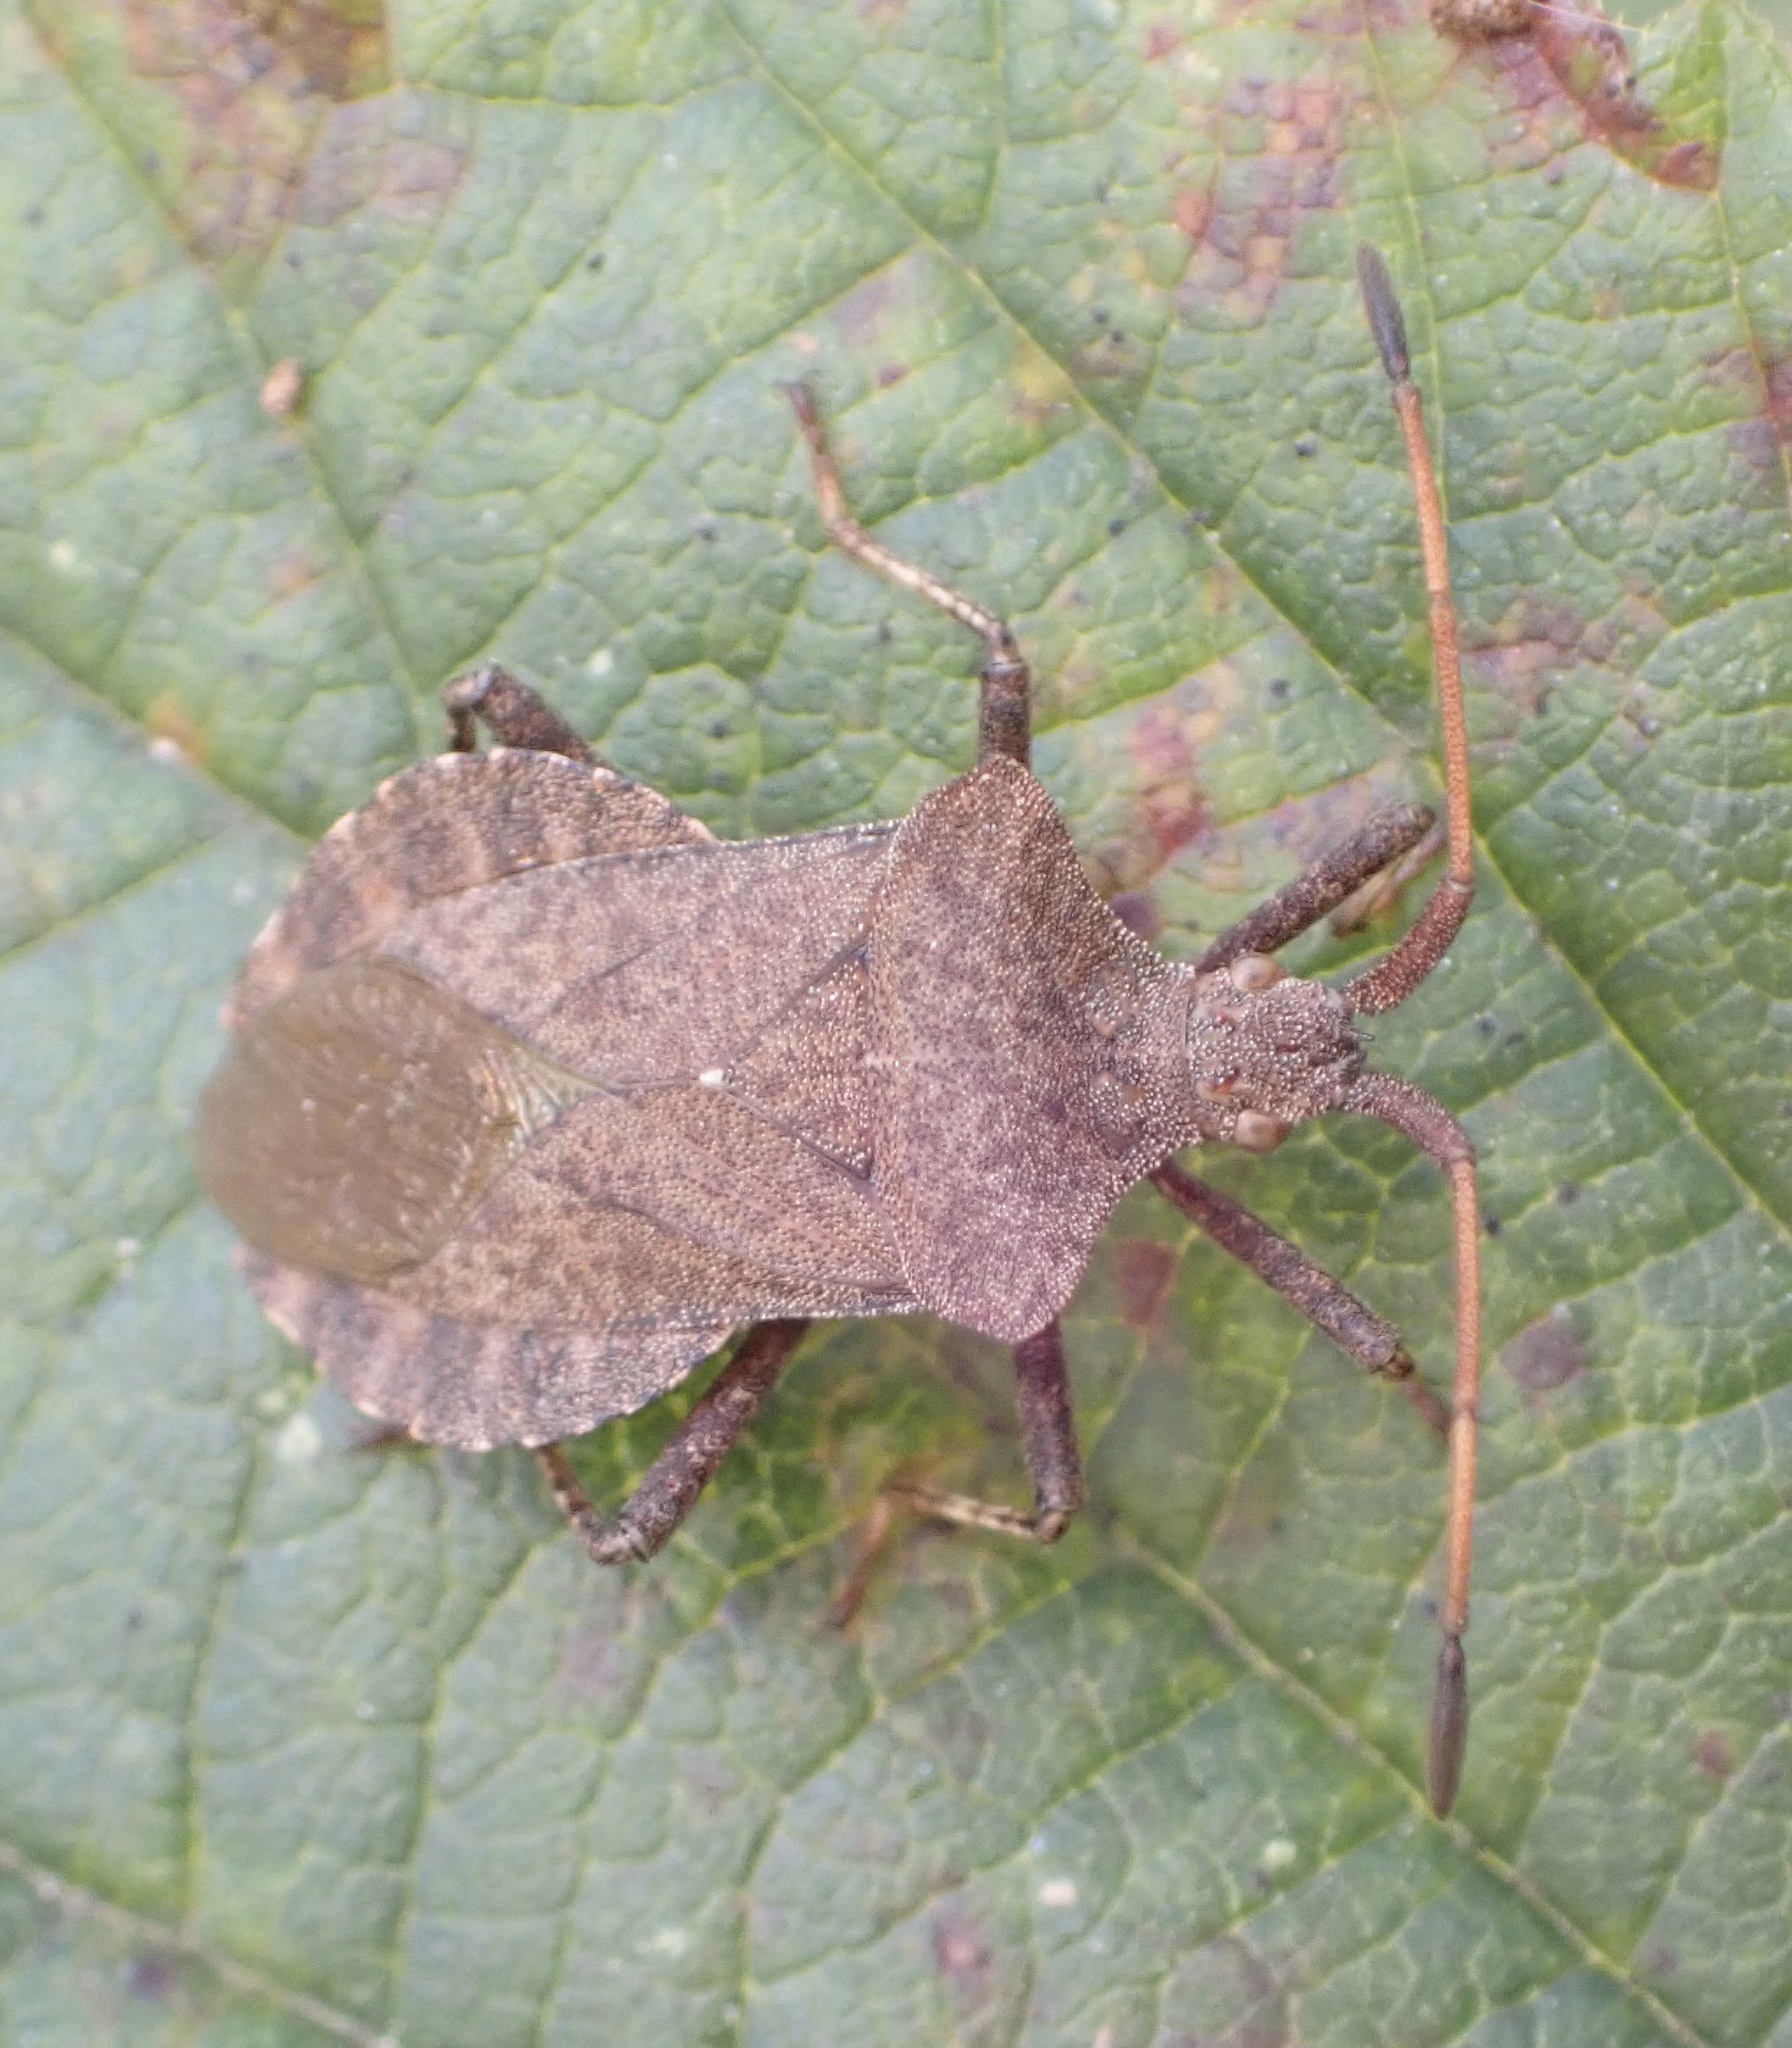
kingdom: Animalia
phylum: Arthropoda
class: Insecta
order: Hemiptera
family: Coreidae
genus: Coreus
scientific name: Coreus marginatus
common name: Dock bug
